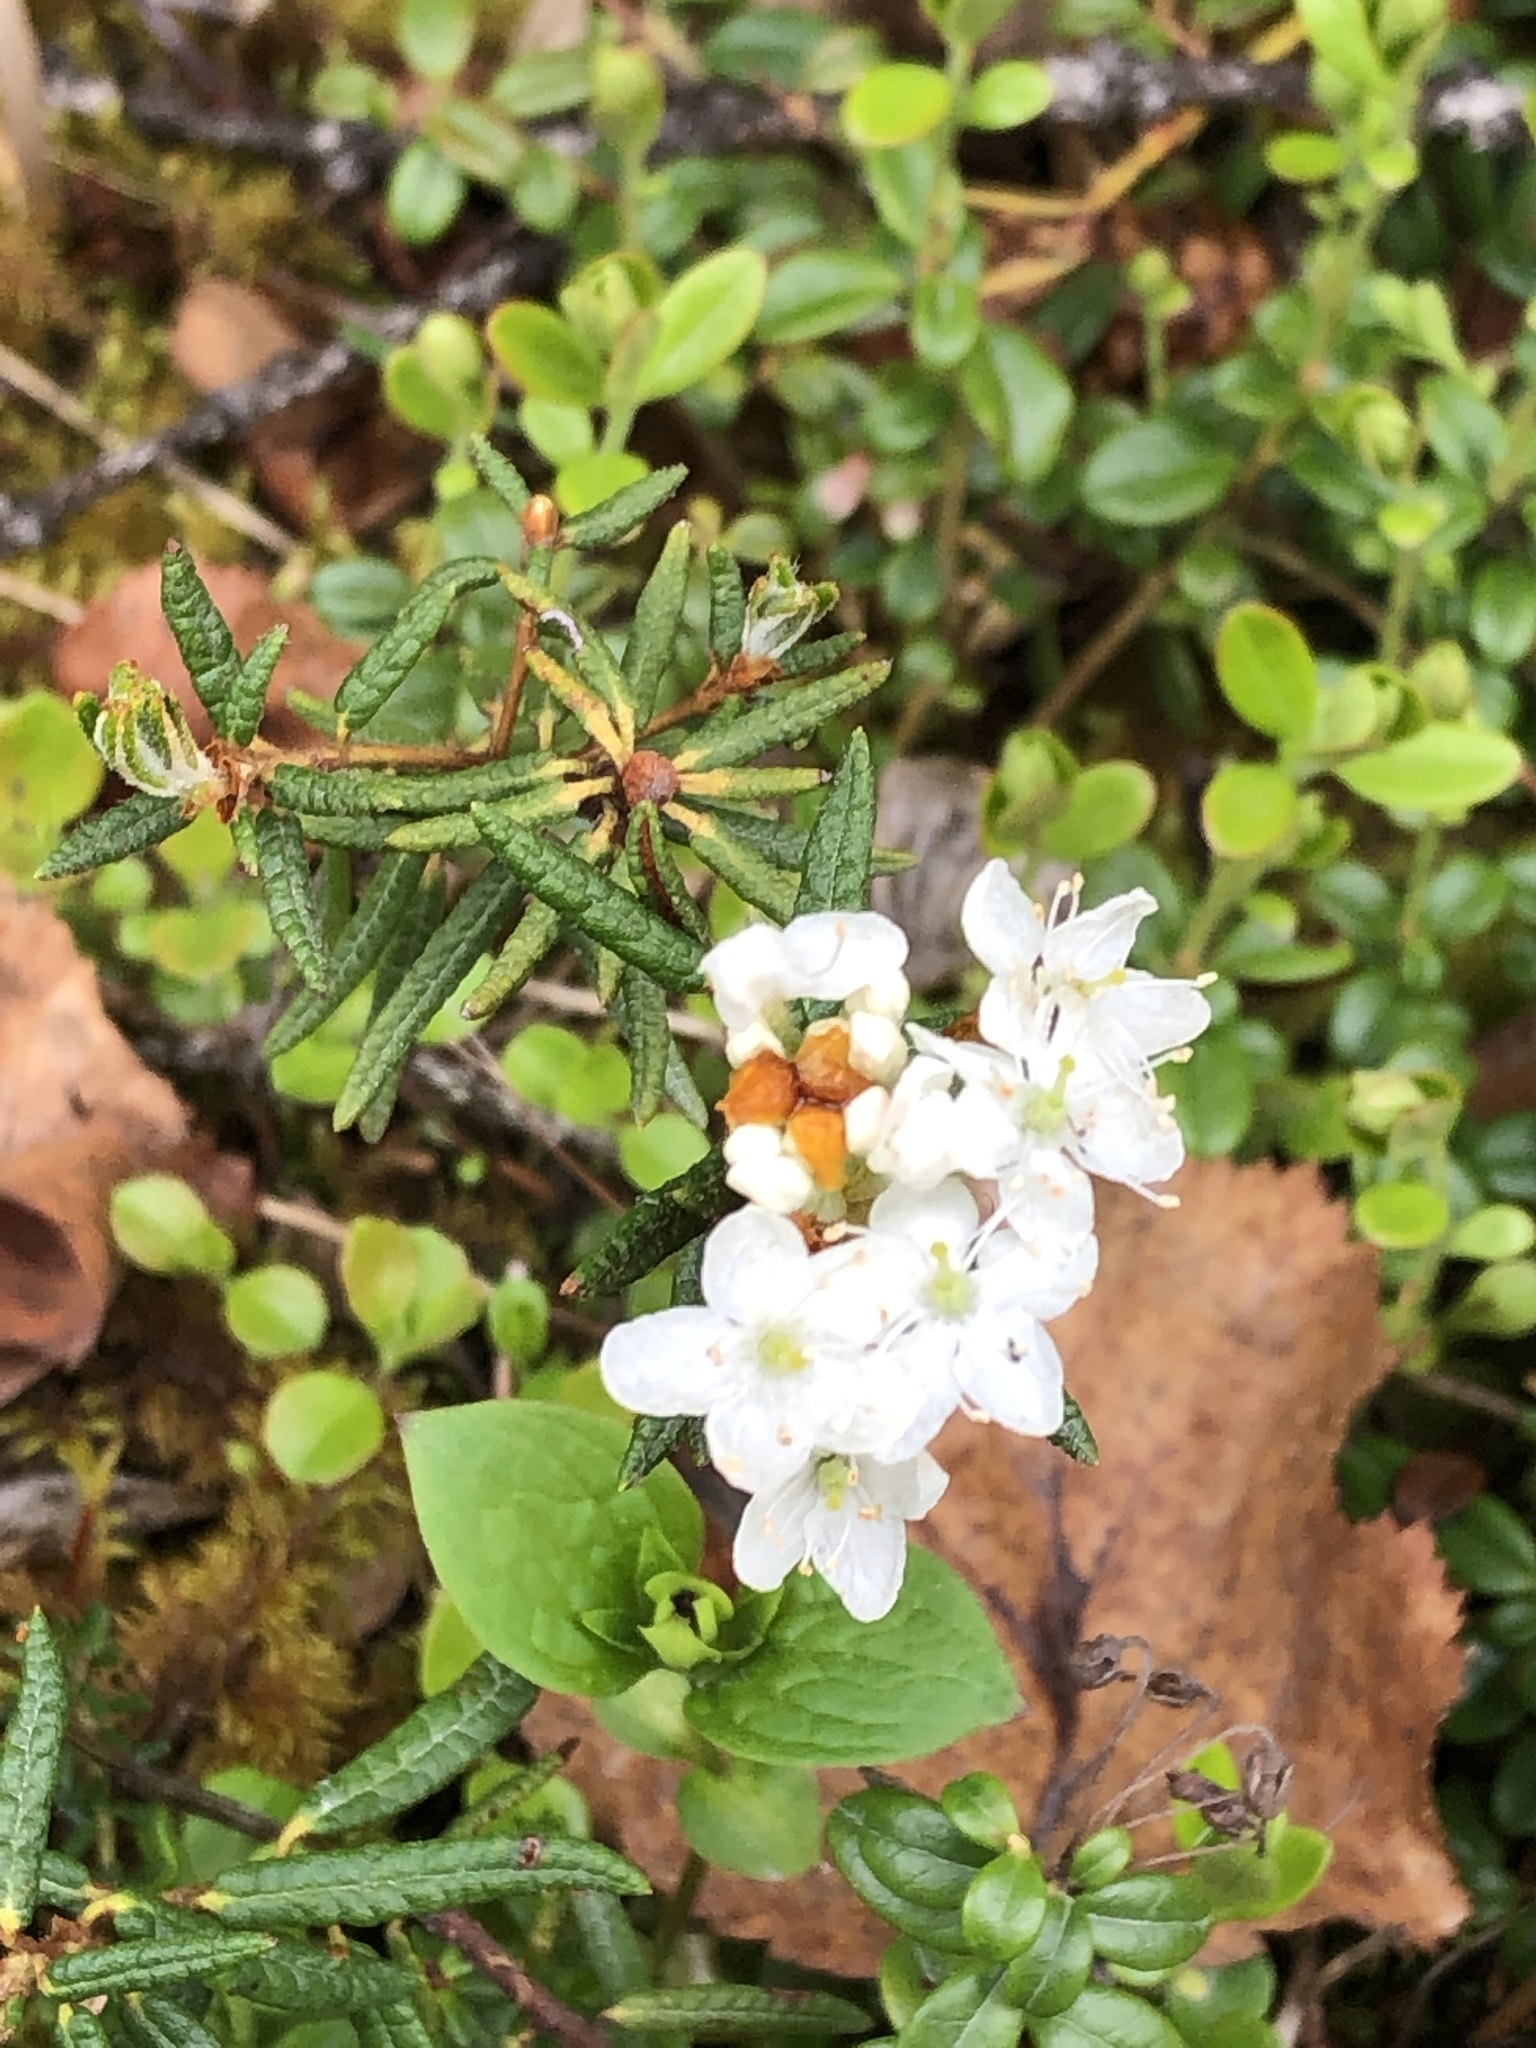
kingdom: Plantae
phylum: Tracheophyta
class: Magnoliopsida
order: Ericales
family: Ericaceae
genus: Rhododendron
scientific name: Rhododendron tomentosum
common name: Marsh labrador tea
